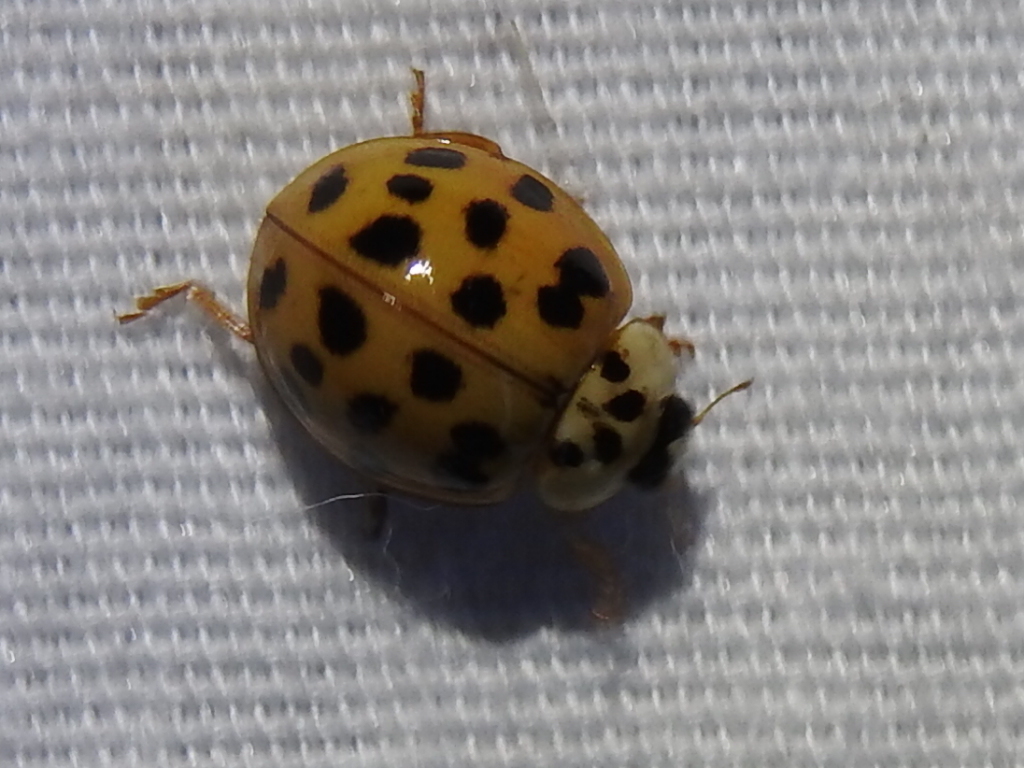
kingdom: Animalia
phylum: Arthropoda
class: Insecta
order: Coleoptera
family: Coccinellidae
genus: Harmonia
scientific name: Harmonia axyridis
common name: Harlequin ladybird
